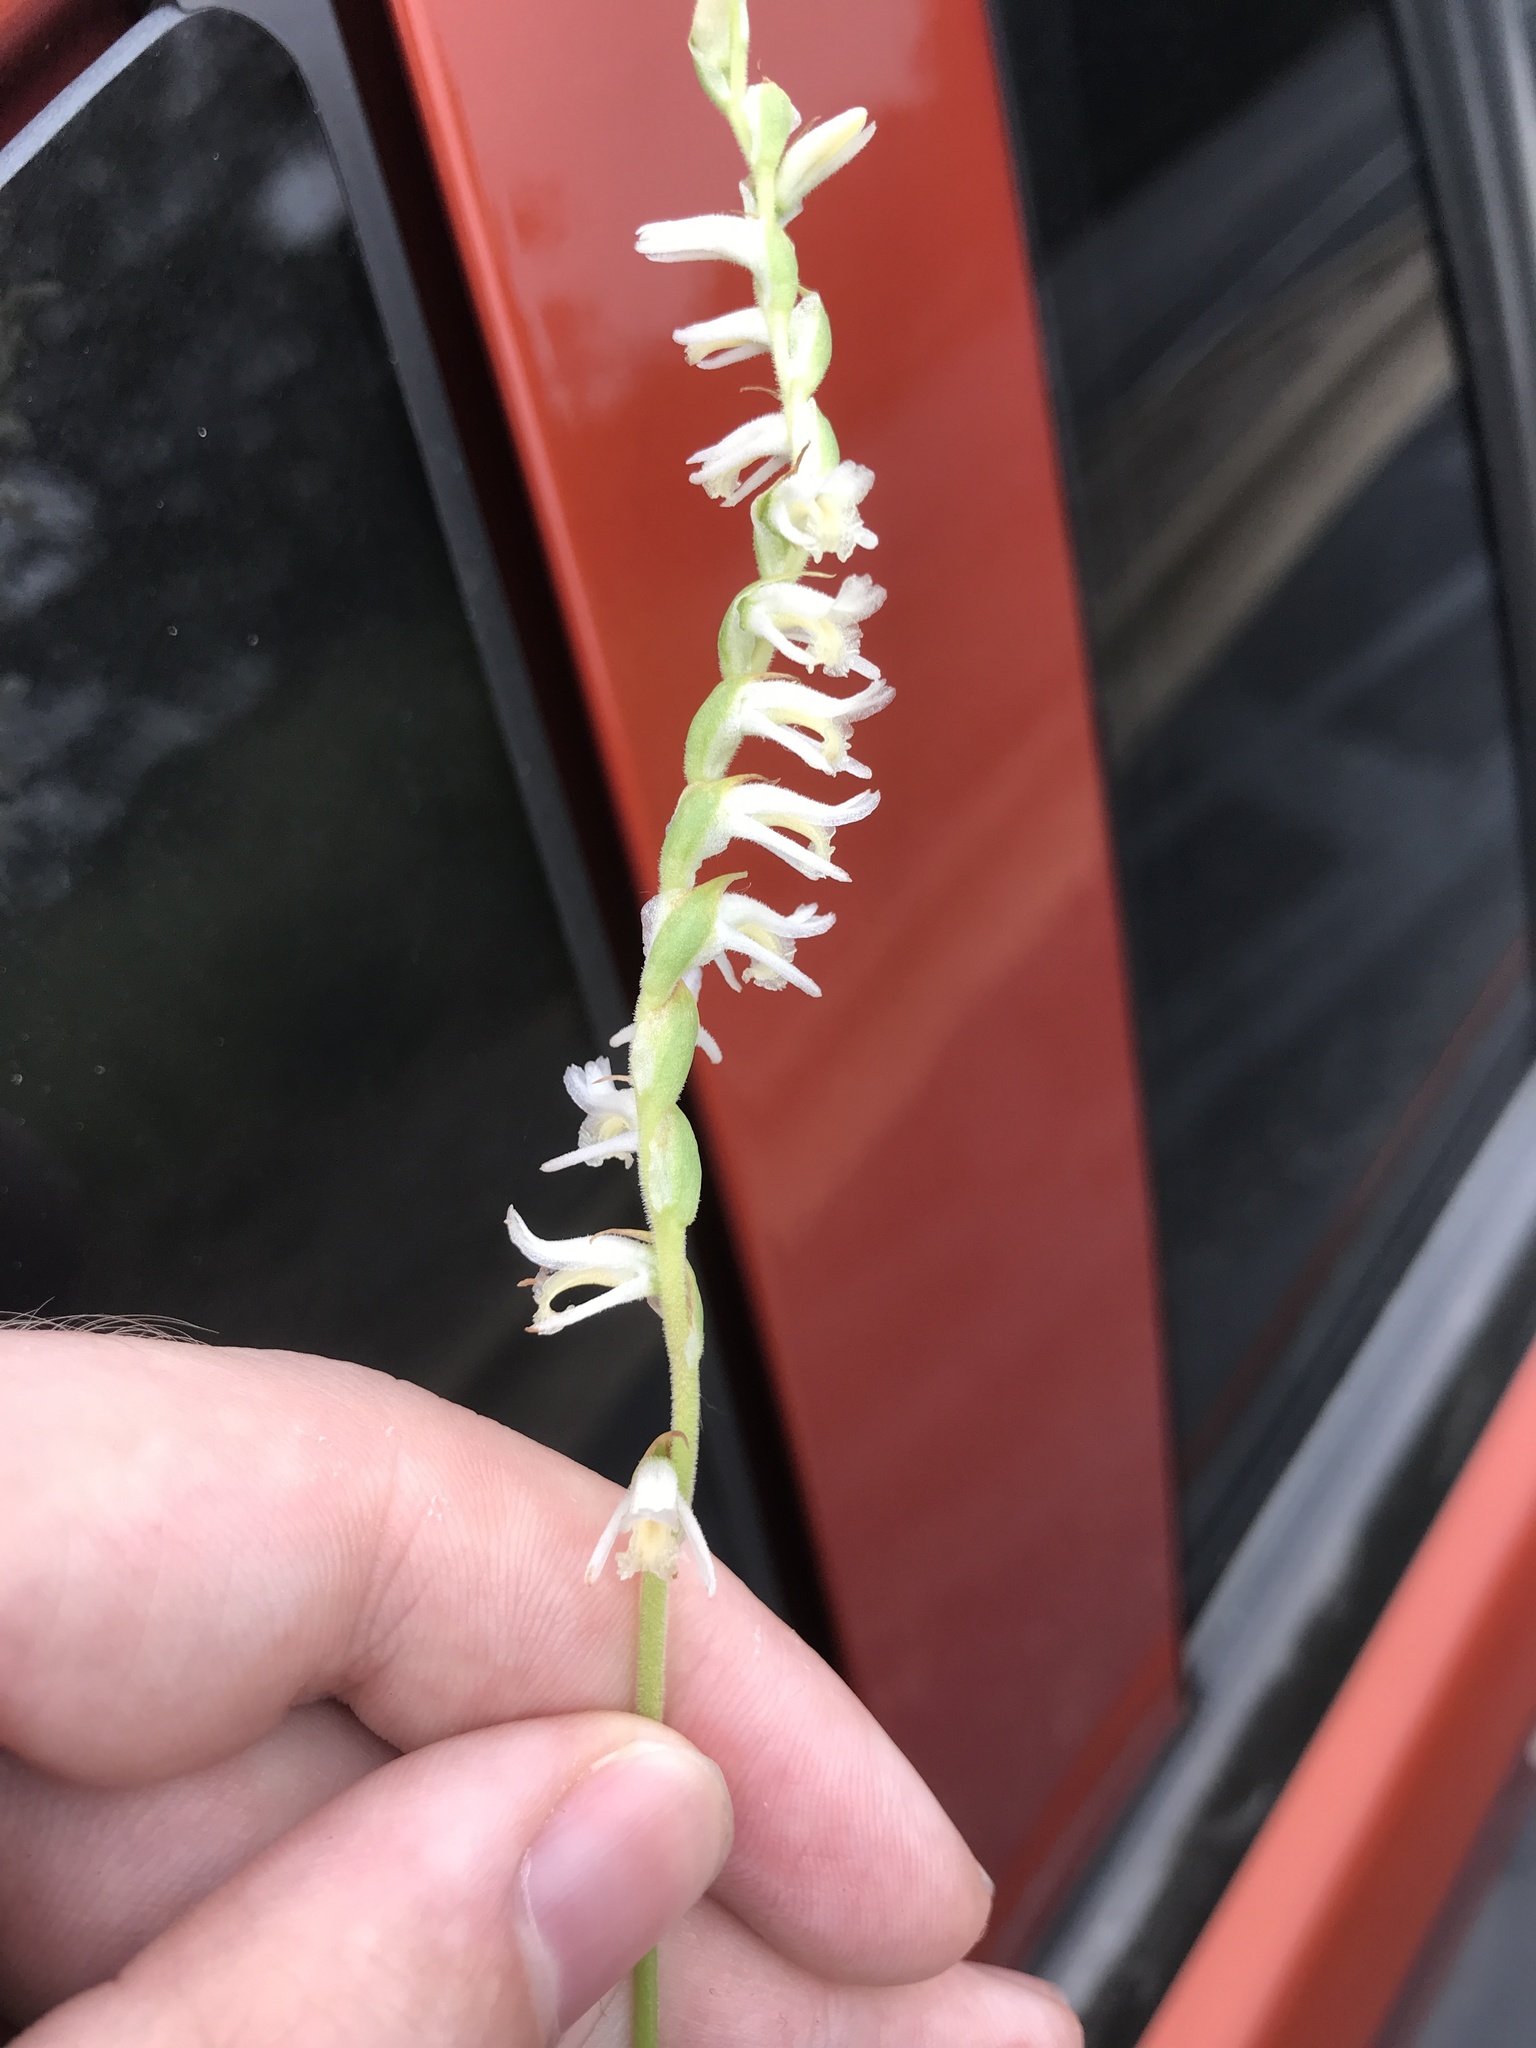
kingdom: Plantae
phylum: Tracheophyta
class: Liliopsida
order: Asparagales
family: Orchidaceae
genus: Spiranthes
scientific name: Spiranthes vernalis
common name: Spring ladies'-tresses
